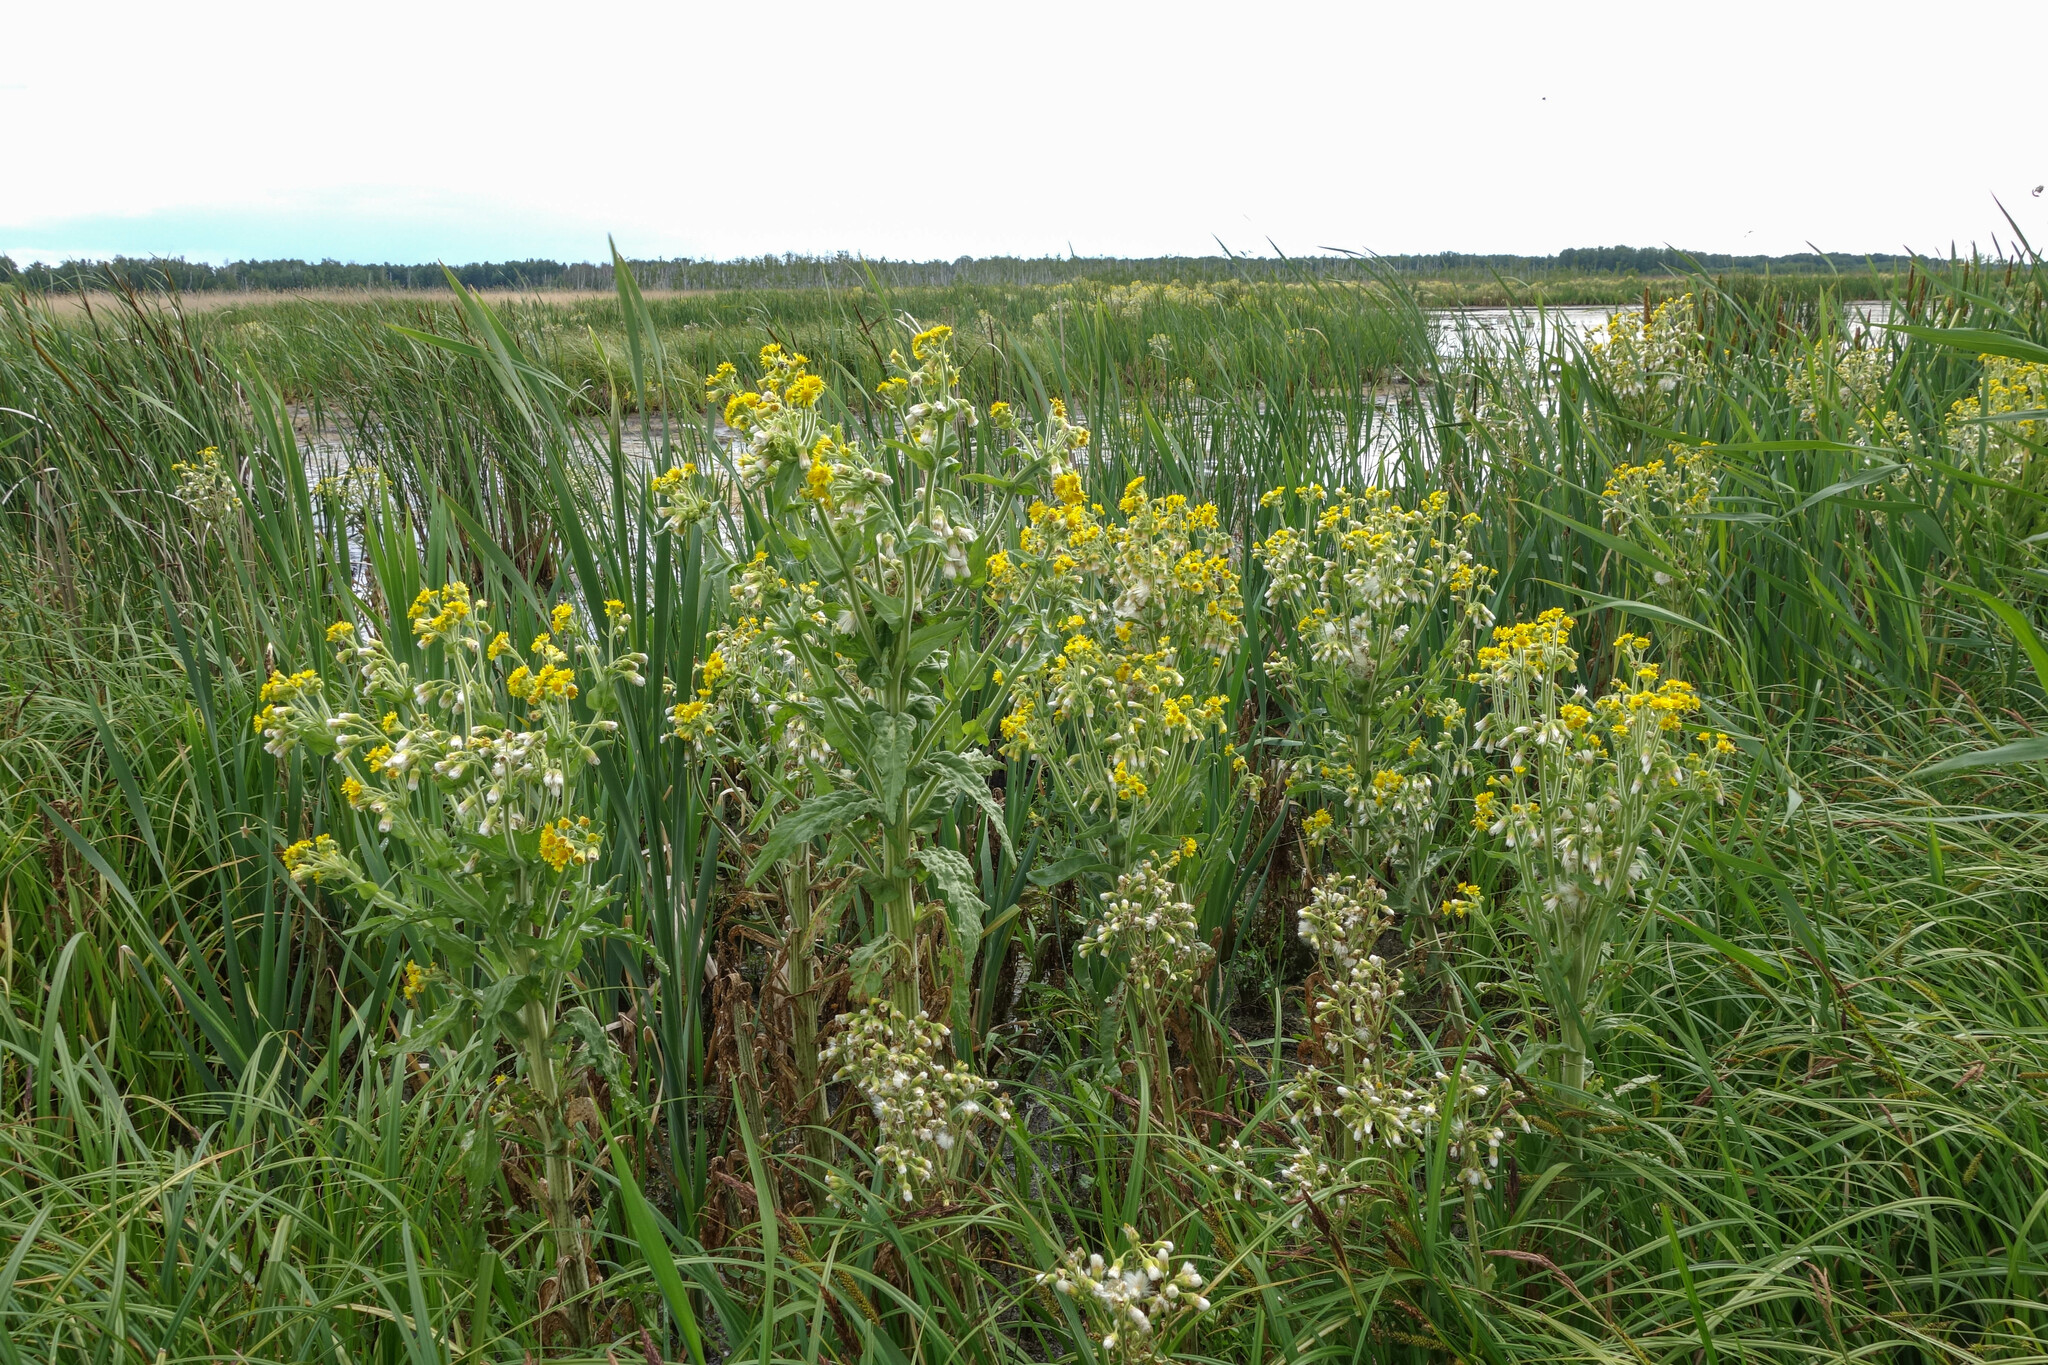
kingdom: Plantae
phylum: Tracheophyta
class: Magnoliopsida
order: Asterales
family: Asteraceae
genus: Tephroseris
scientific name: Tephroseris palustris
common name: Marsh fleawort
